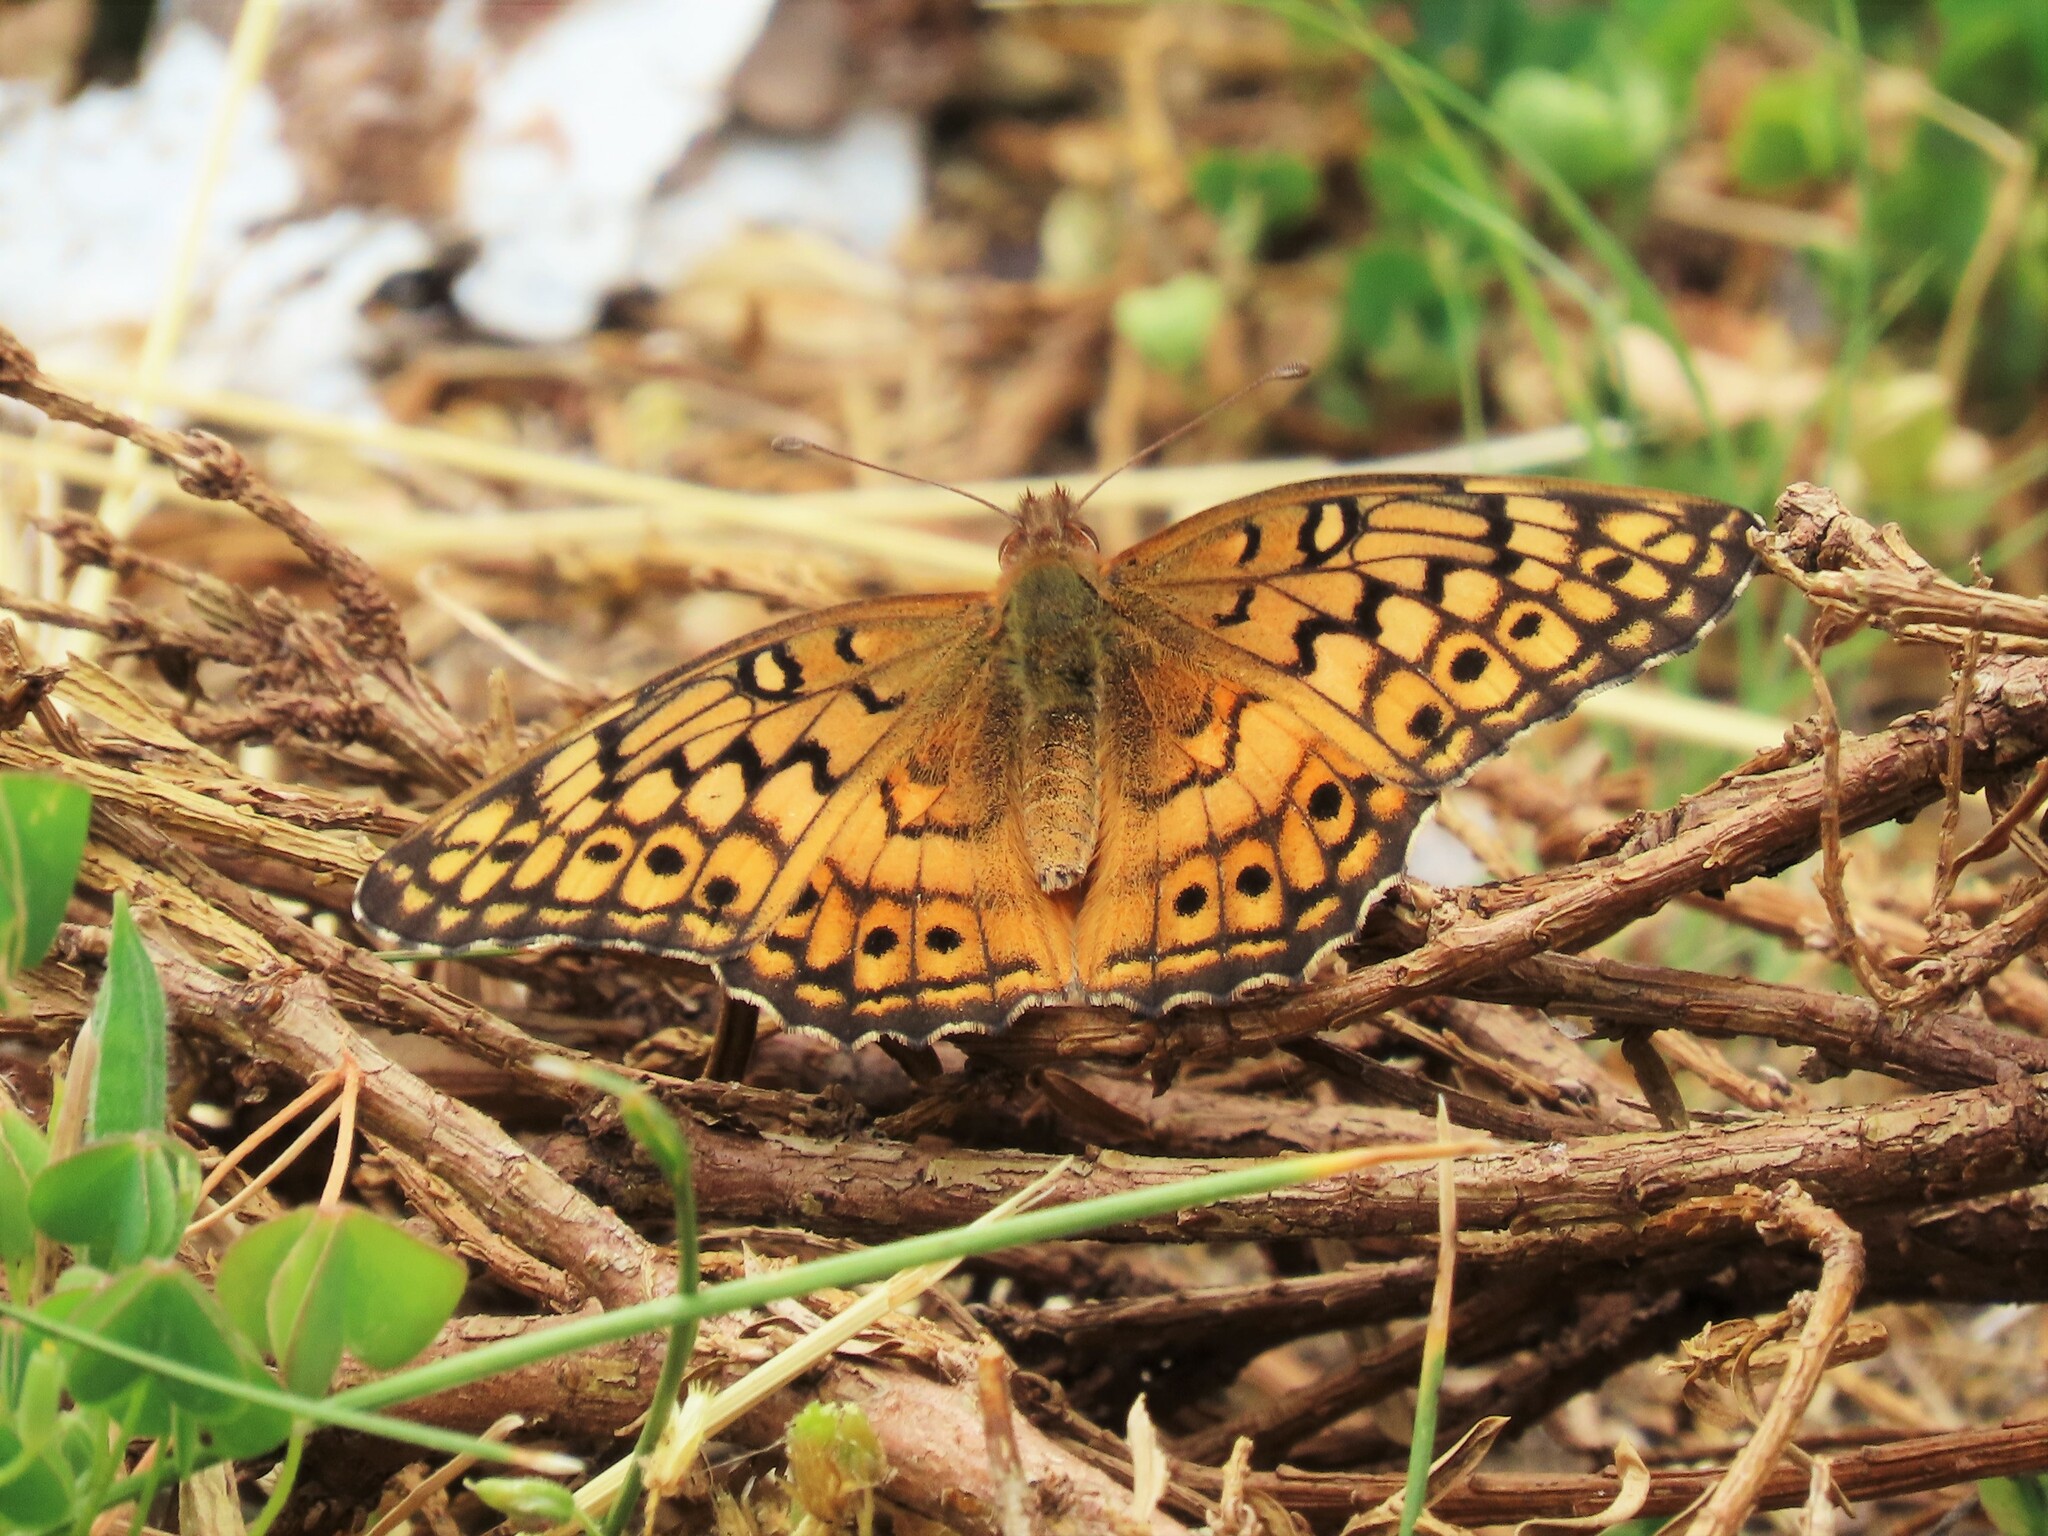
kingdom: Animalia
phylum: Arthropoda
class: Insecta
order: Lepidoptera
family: Nymphalidae
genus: Euptoieta
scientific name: Euptoieta claudia
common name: Variegated fritillary
